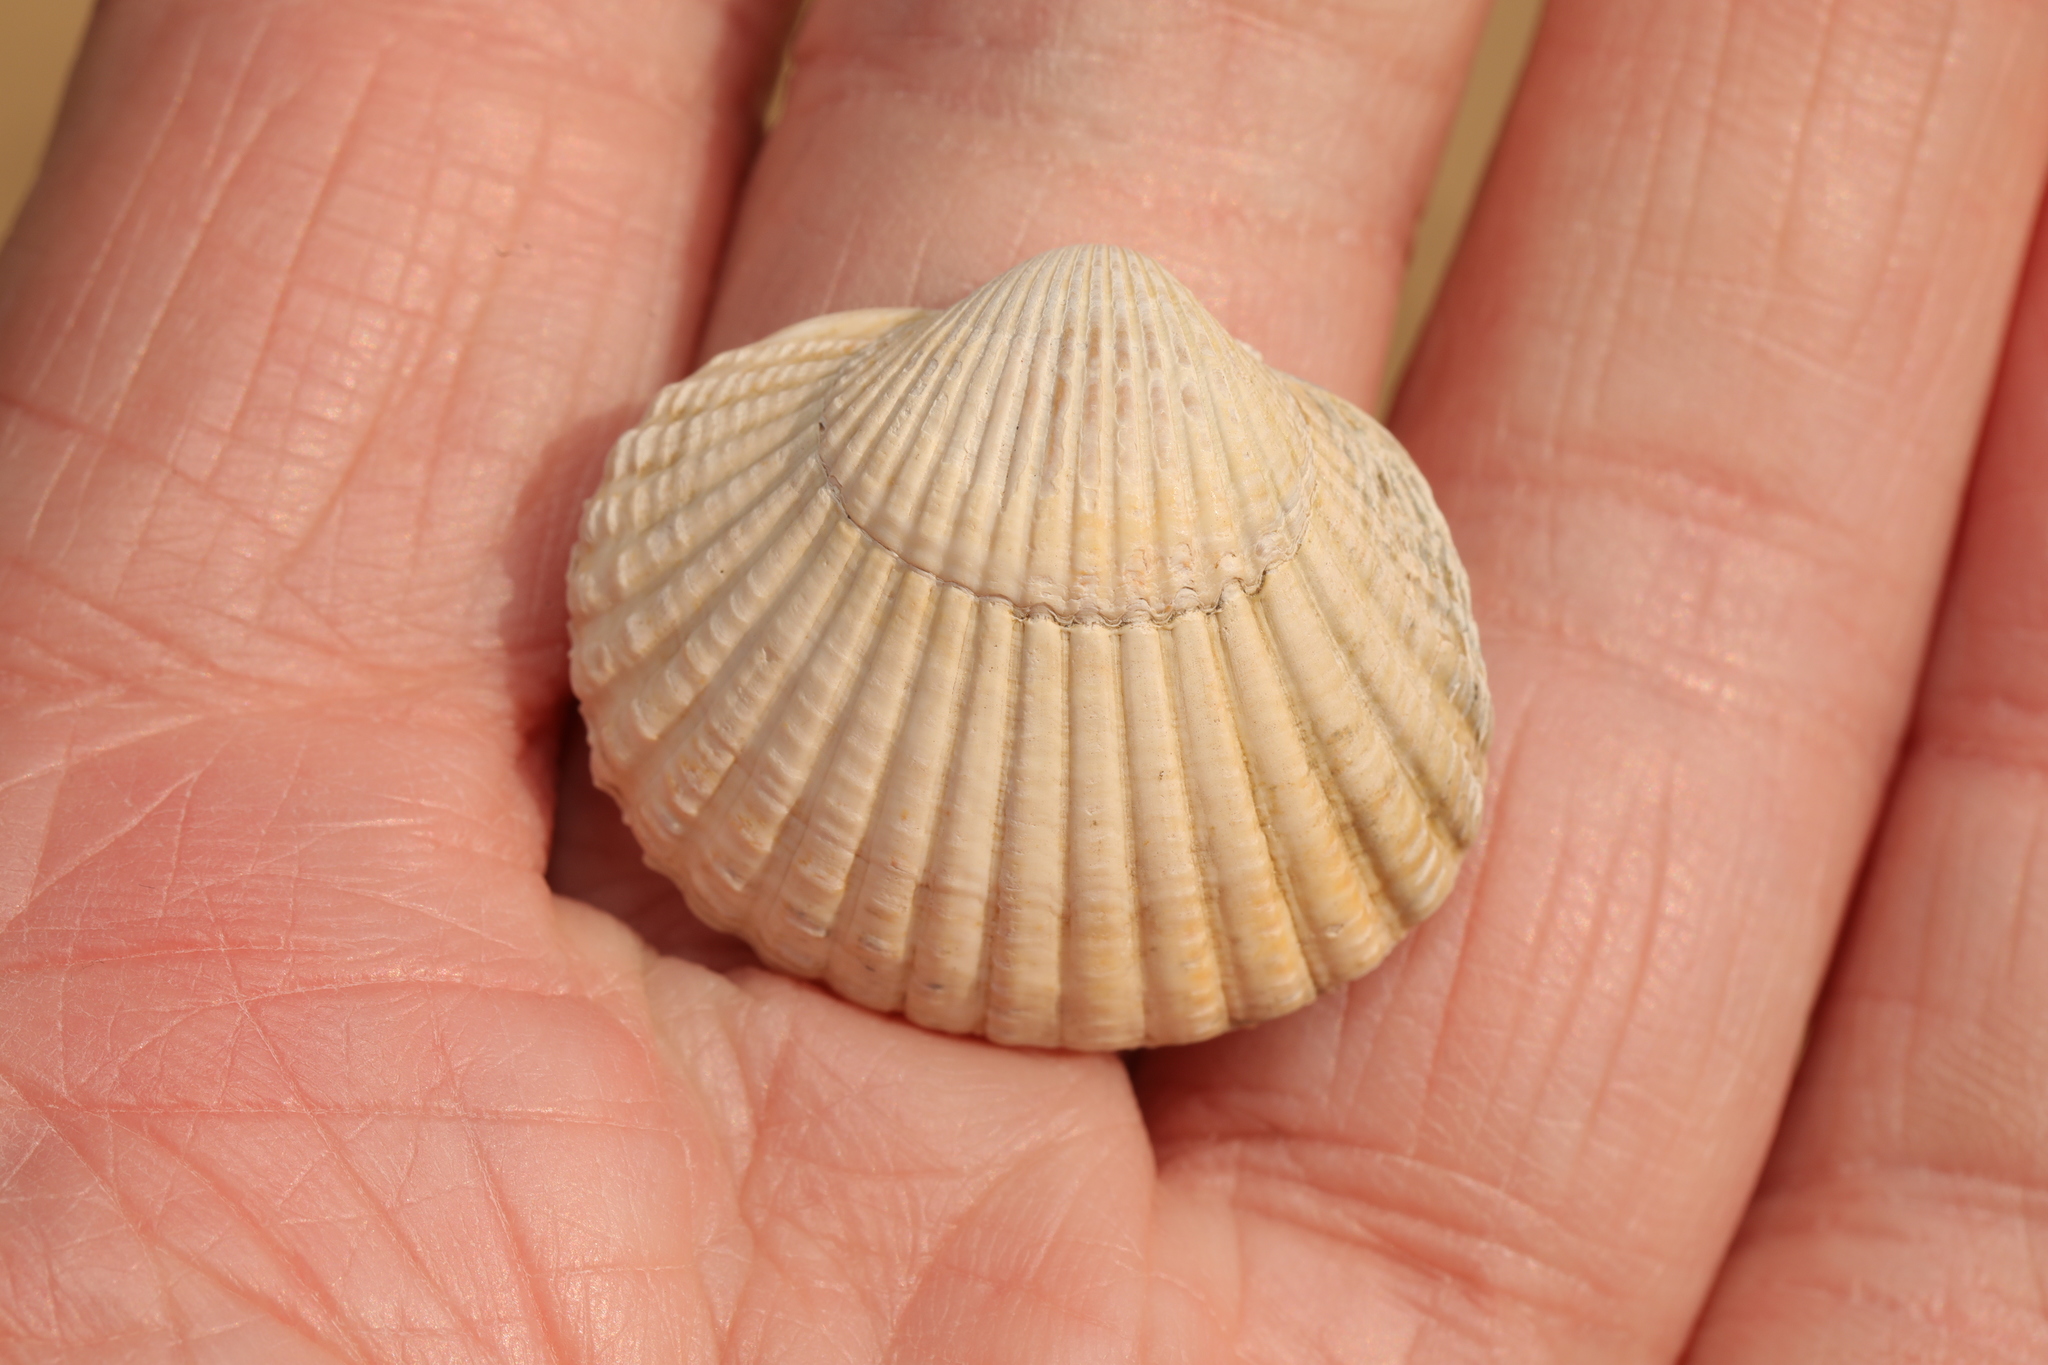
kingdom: Animalia
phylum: Mollusca
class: Bivalvia
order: Cardiida
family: Cardiidae
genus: Cerastoderma
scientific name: Cerastoderma edule
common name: Common cockle
